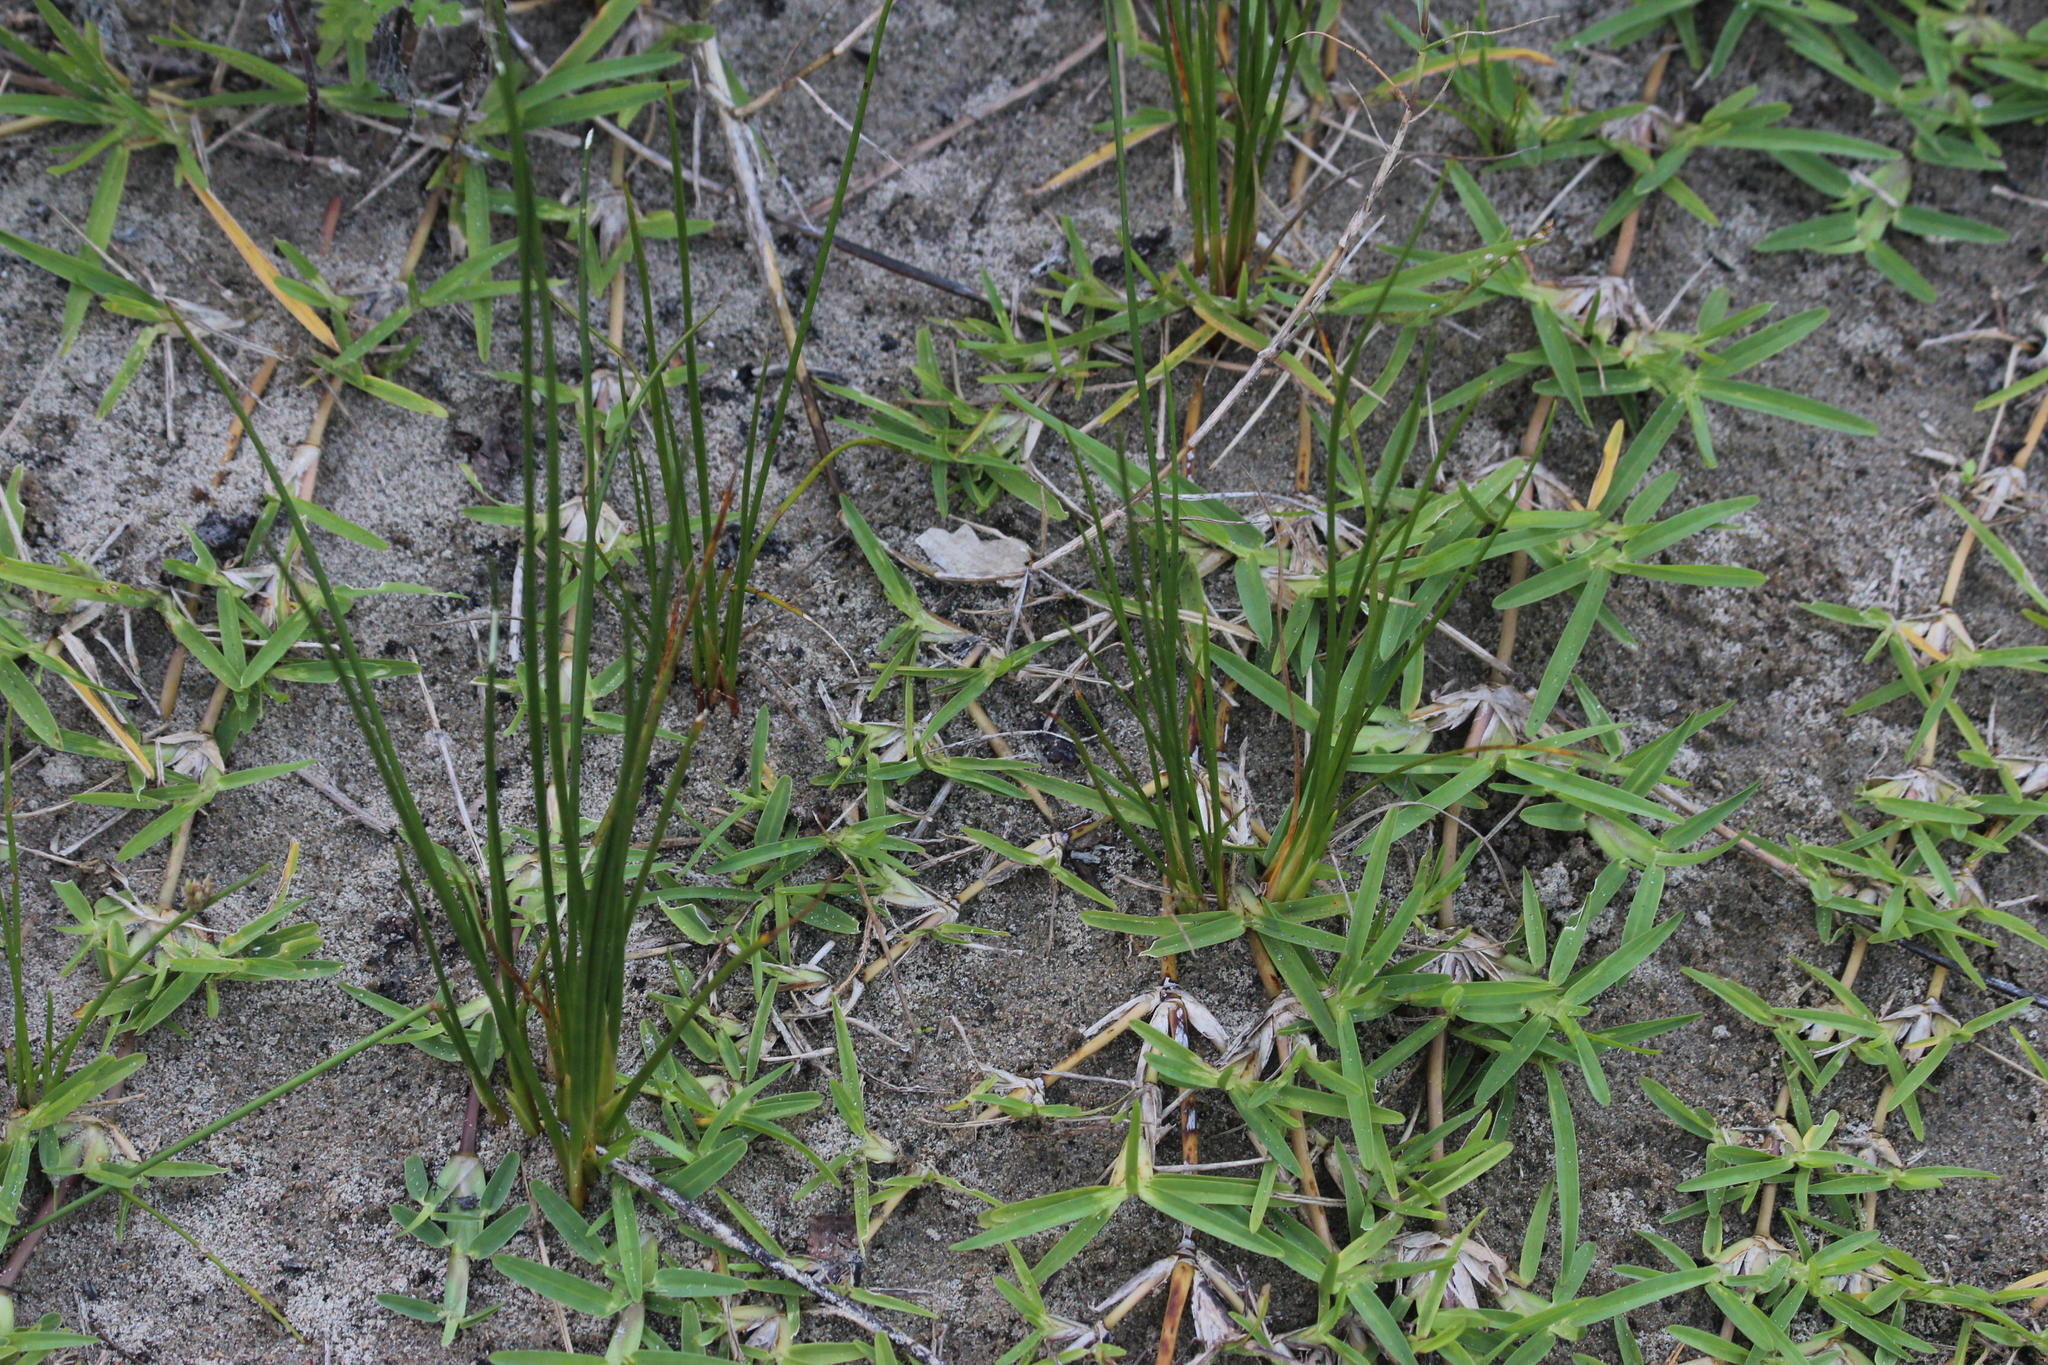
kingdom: Plantae
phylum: Tracheophyta
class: Liliopsida
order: Poales
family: Poaceae
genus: Stenotaphrum
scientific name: Stenotaphrum secundatum
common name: St. augustine grass
